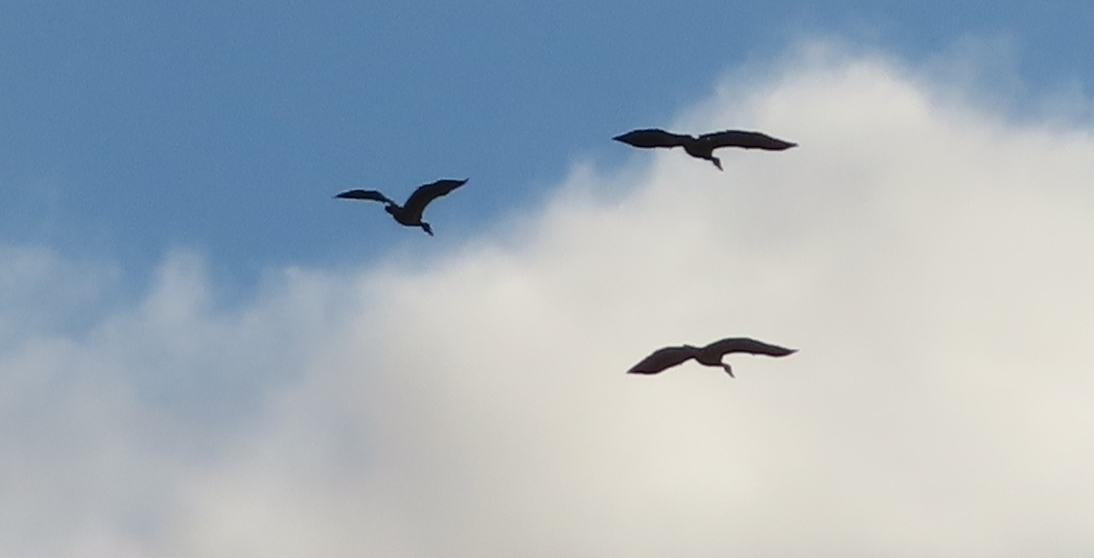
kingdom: Animalia
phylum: Chordata
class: Aves
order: Anseriformes
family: Anatidae
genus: Plectropterus
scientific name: Plectropterus gambensis
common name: Spur-winged goose
